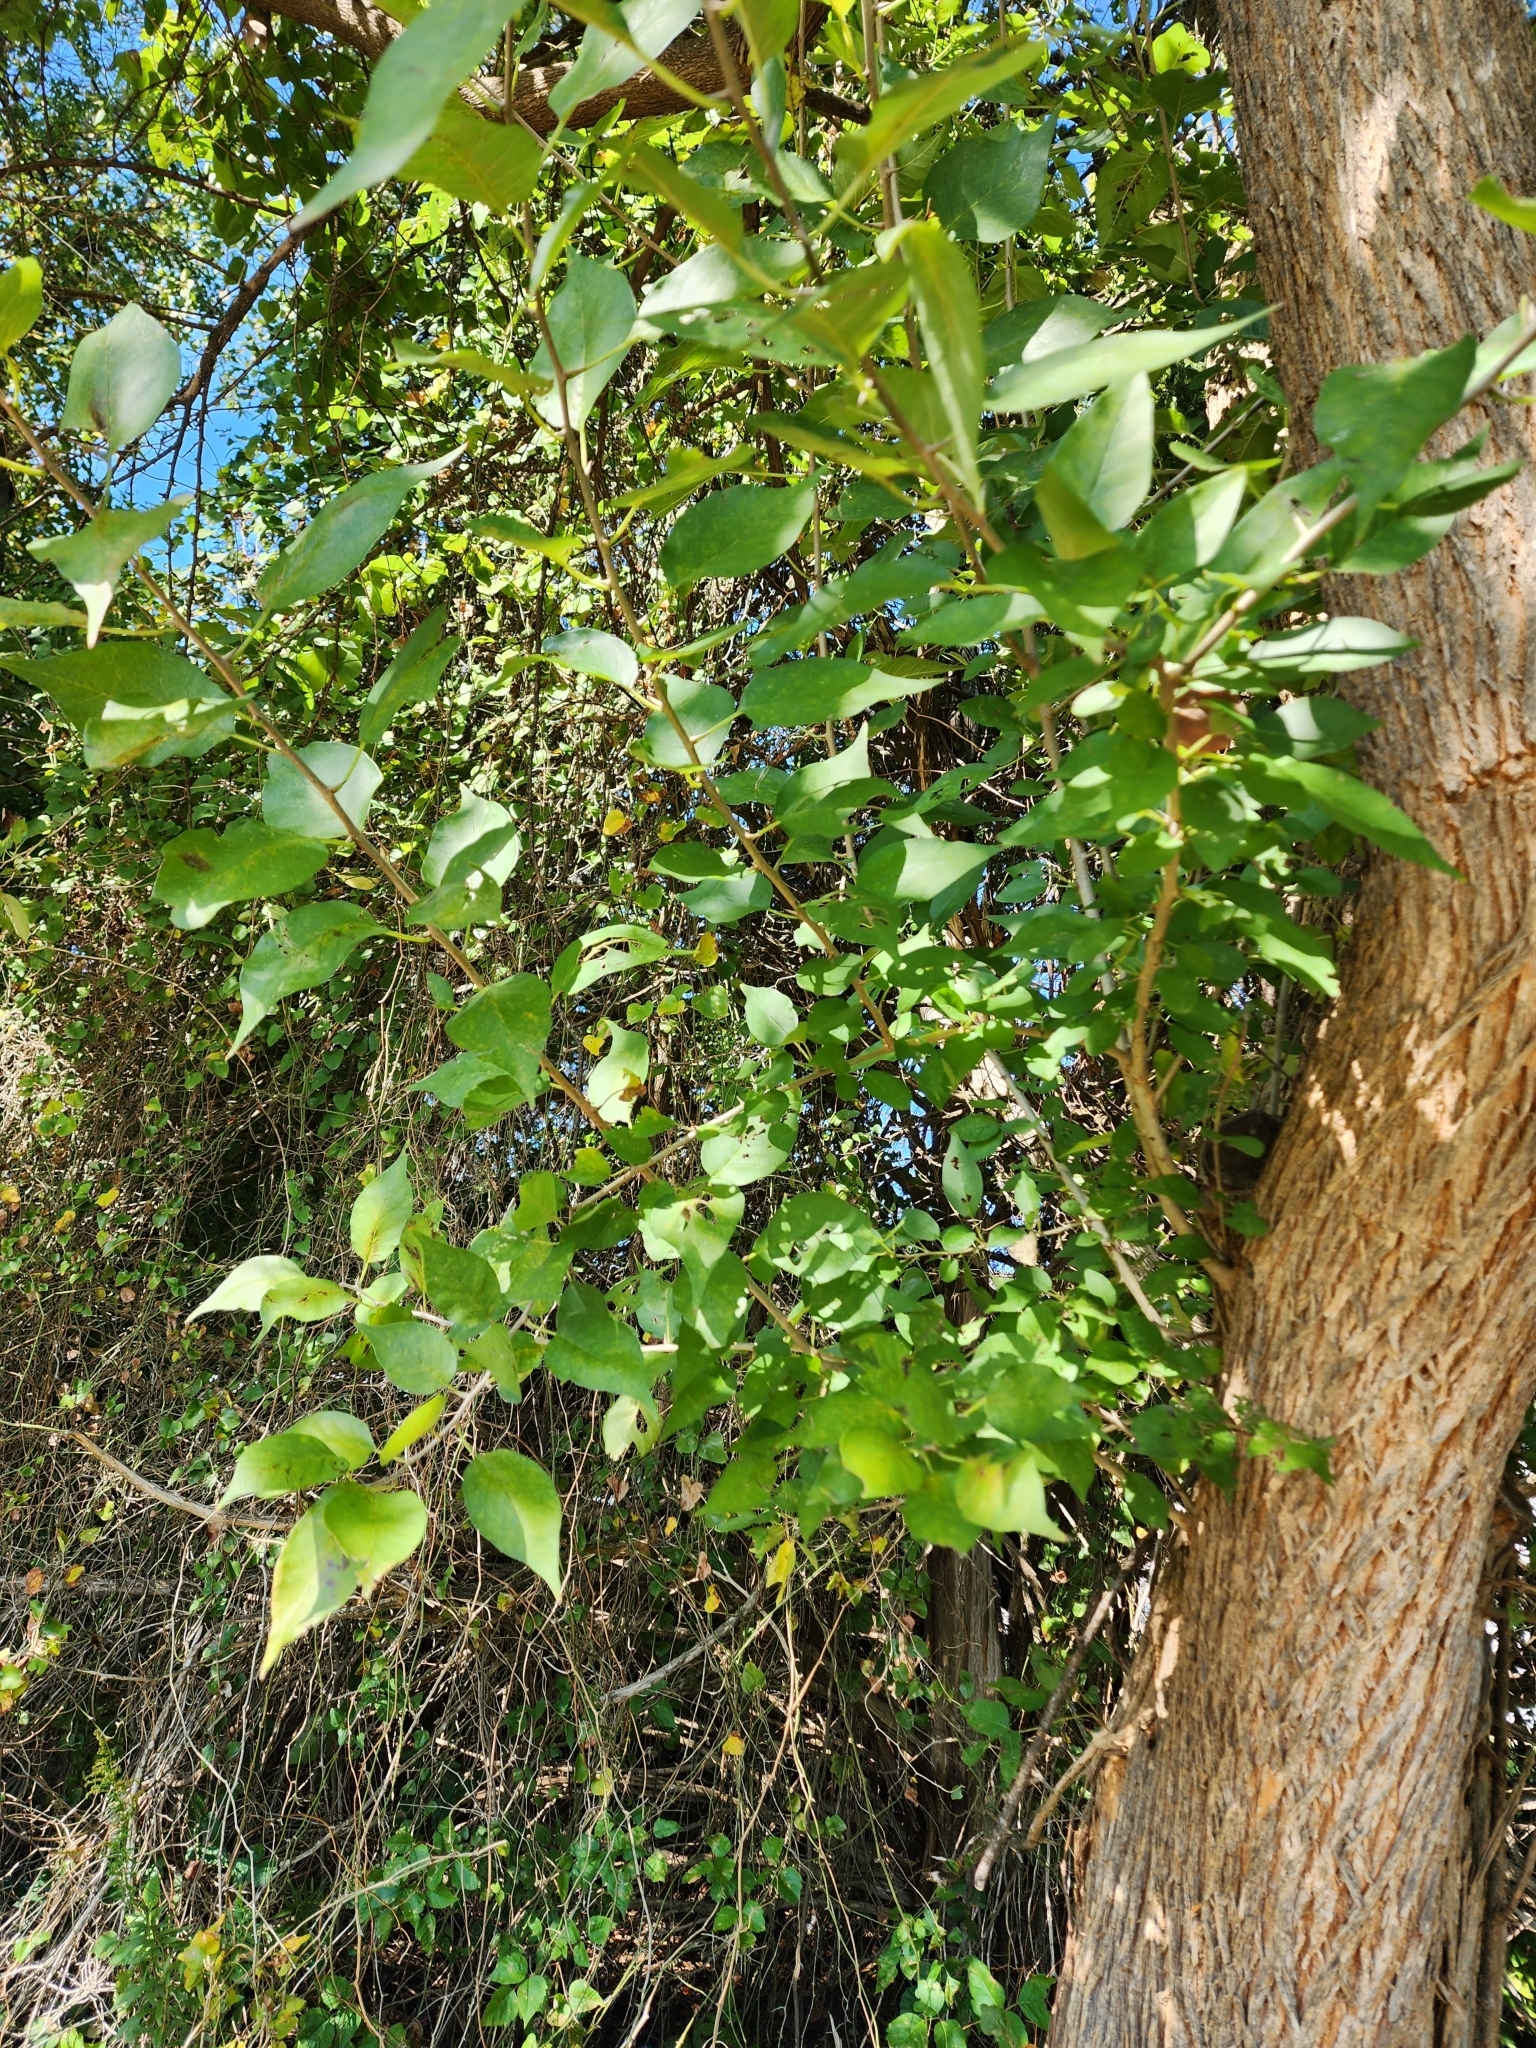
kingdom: Plantae
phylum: Tracheophyta
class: Magnoliopsida
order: Rosales
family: Moraceae
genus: Maclura
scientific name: Maclura pomifera
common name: Osage-orange
